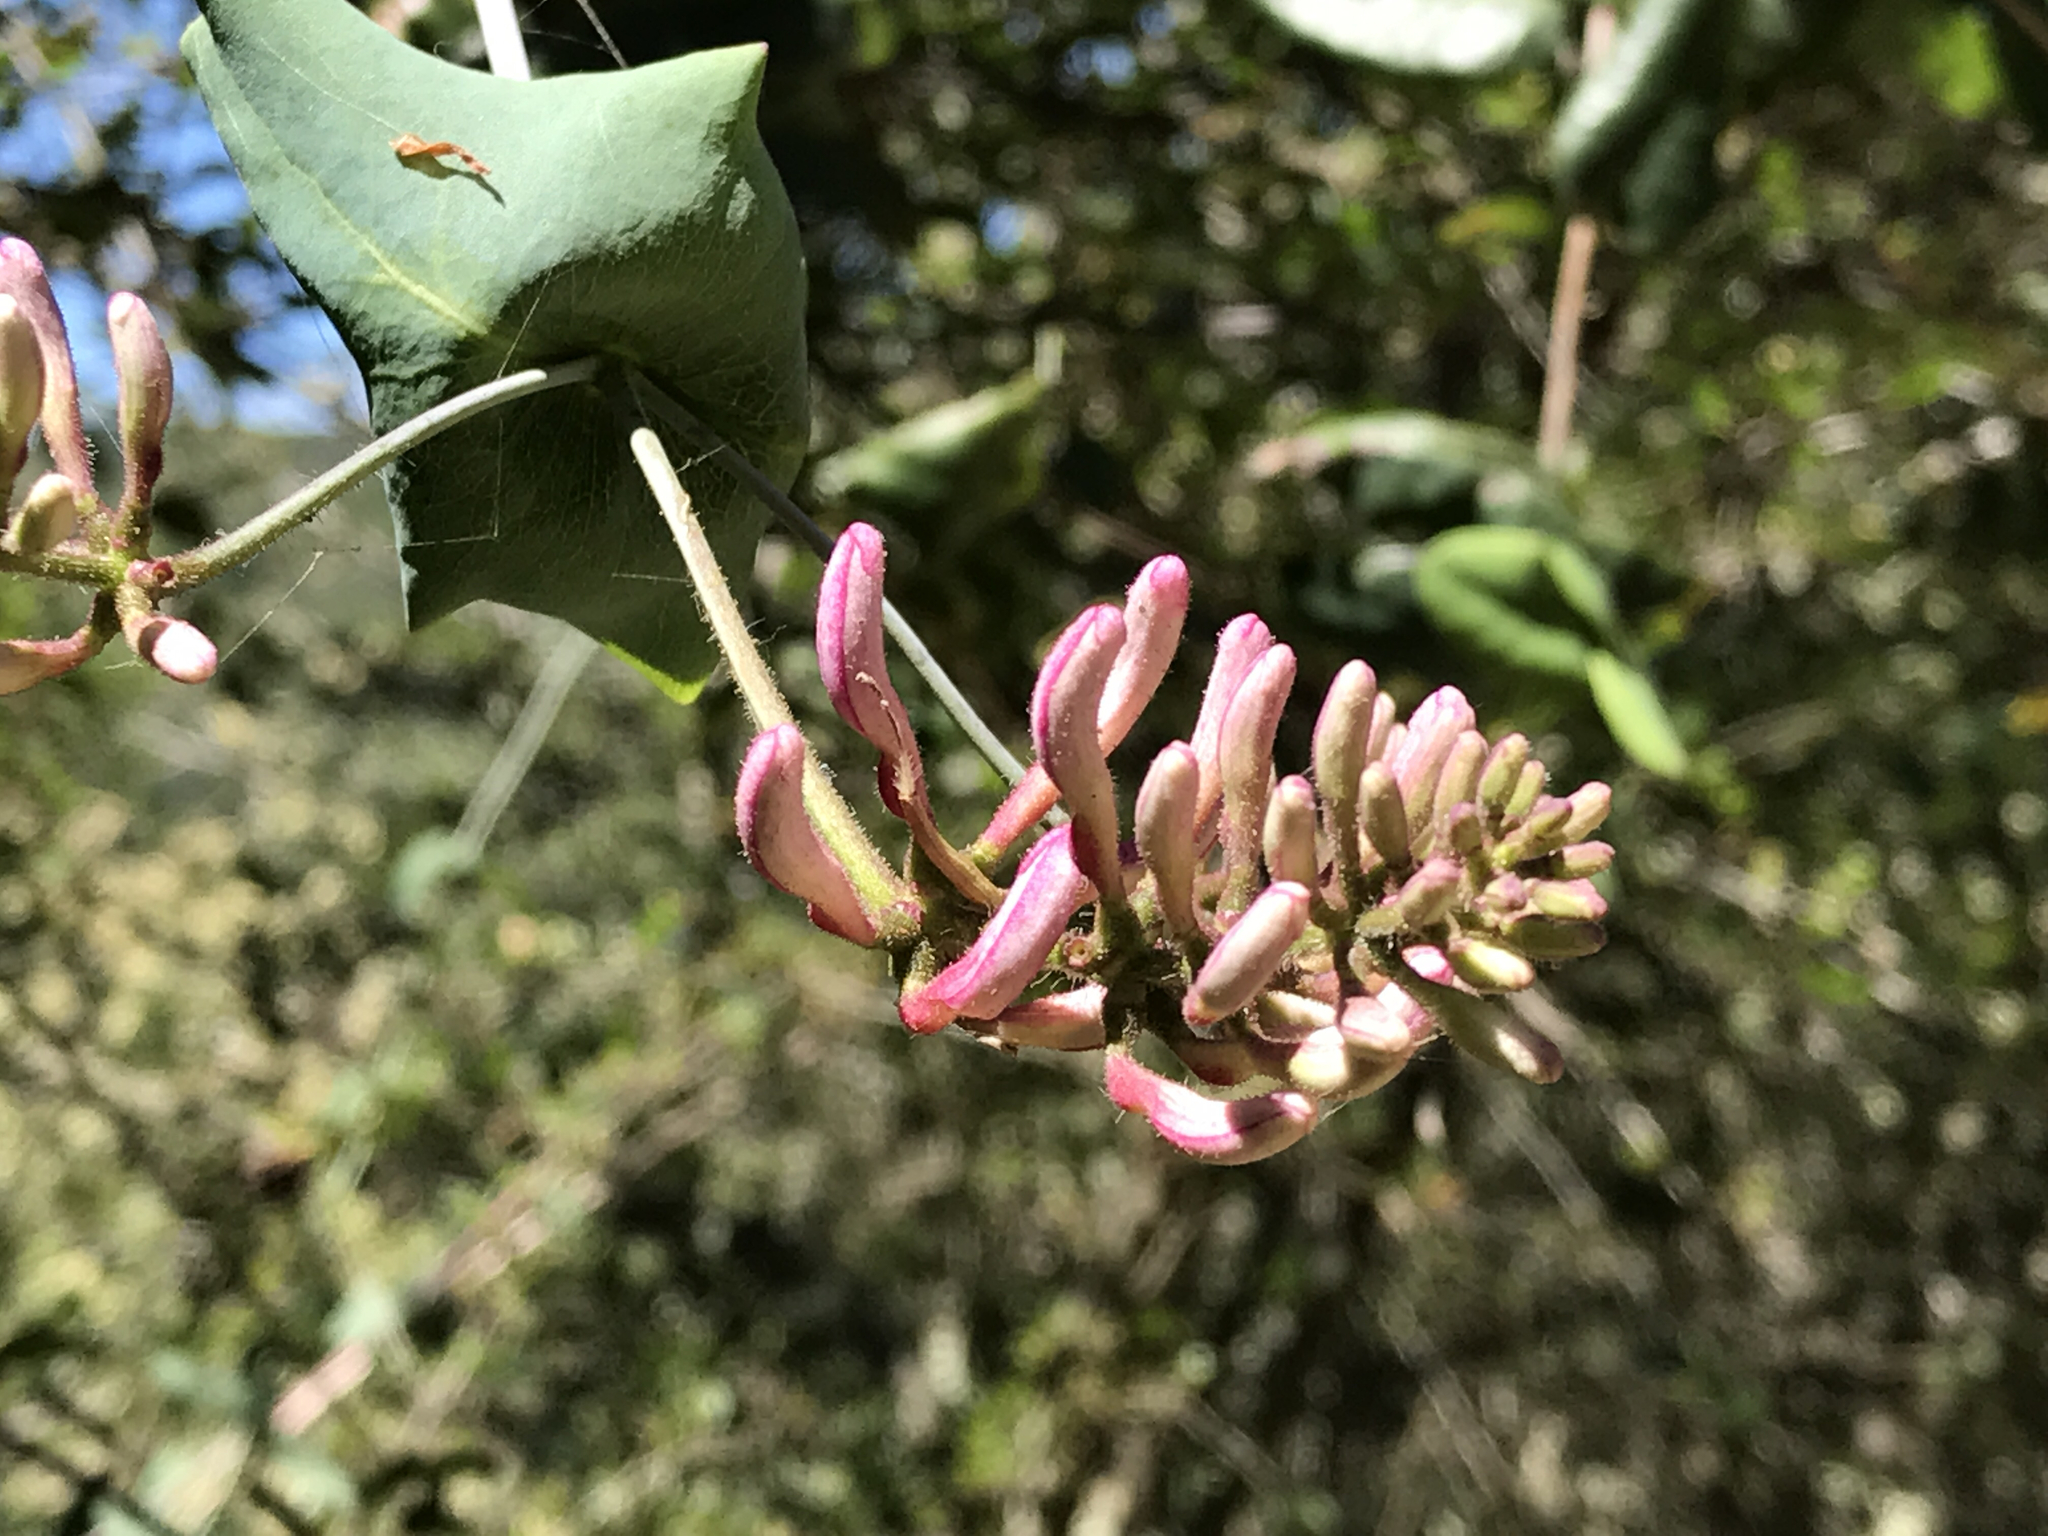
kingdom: Plantae
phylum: Tracheophyta
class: Magnoliopsida
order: Dipsacales
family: Caprifoliaceae
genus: Lonicera
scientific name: Lonicera hispidula
